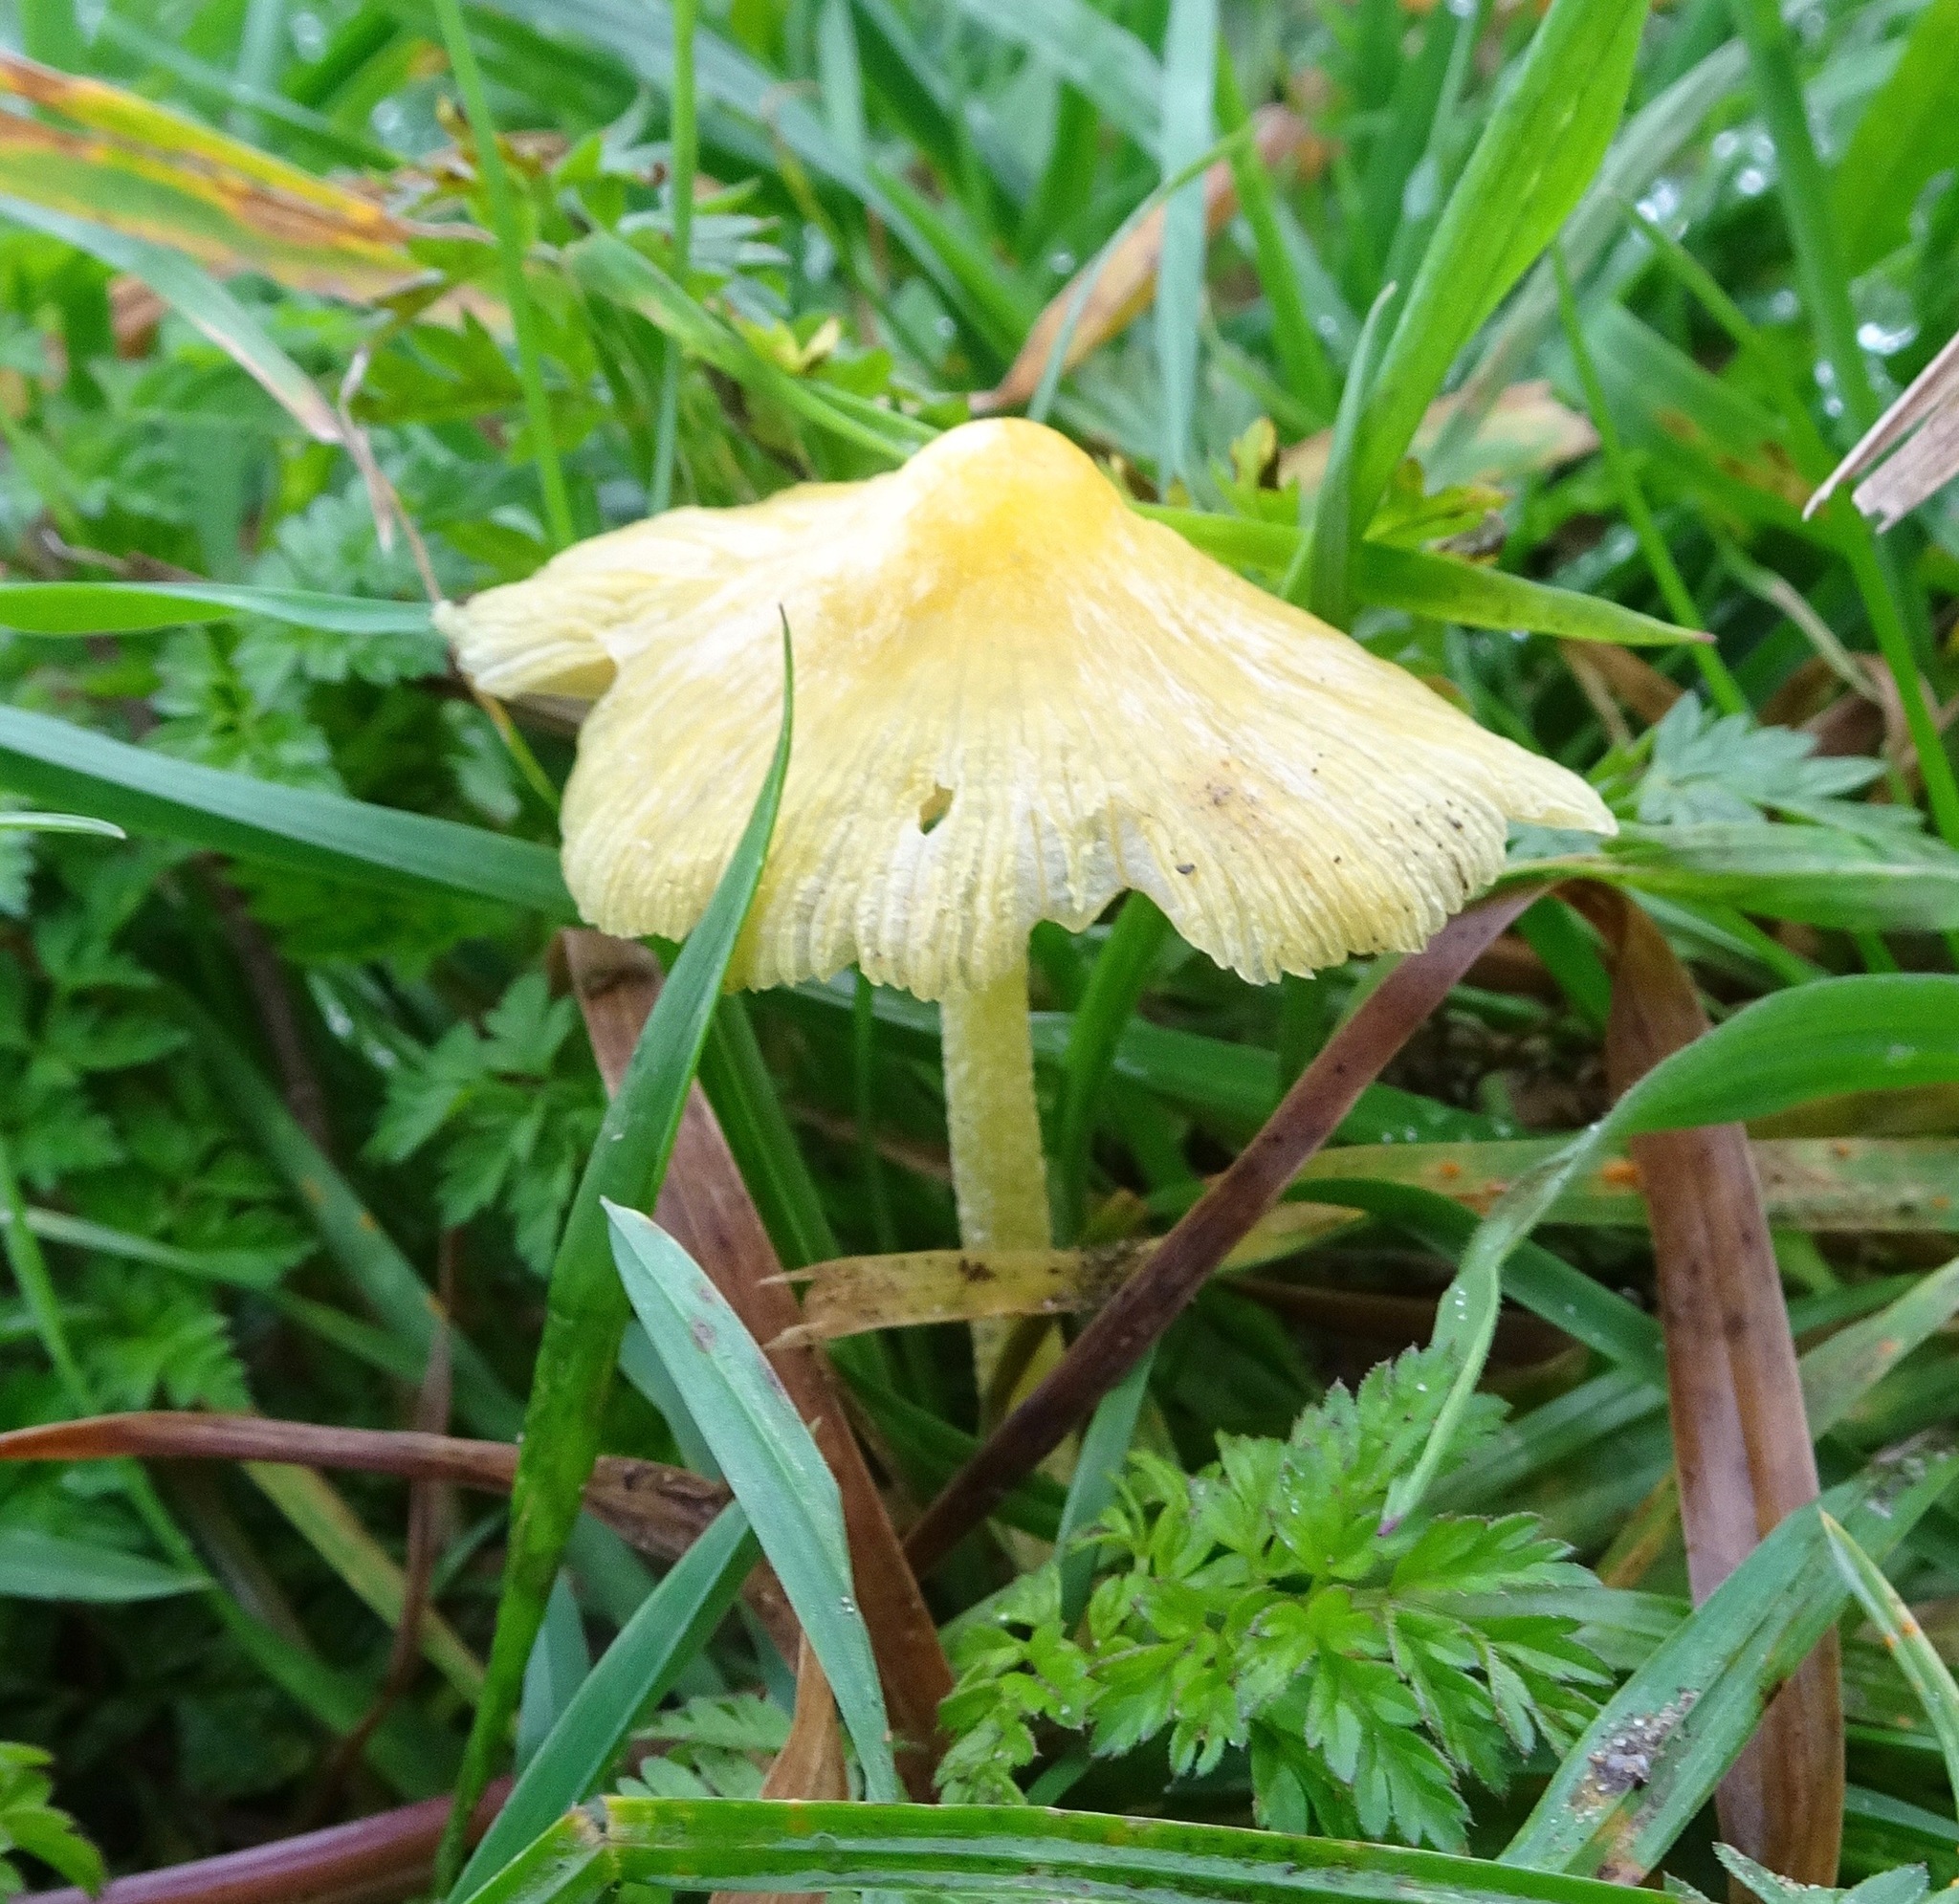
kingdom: Fungi
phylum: Basidiomycota
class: Agaricomycetes
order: Agaricales
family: Bolbitiaceae
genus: Bolbitius
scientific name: Bolbitius titubans
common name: Yellow fieldcap
